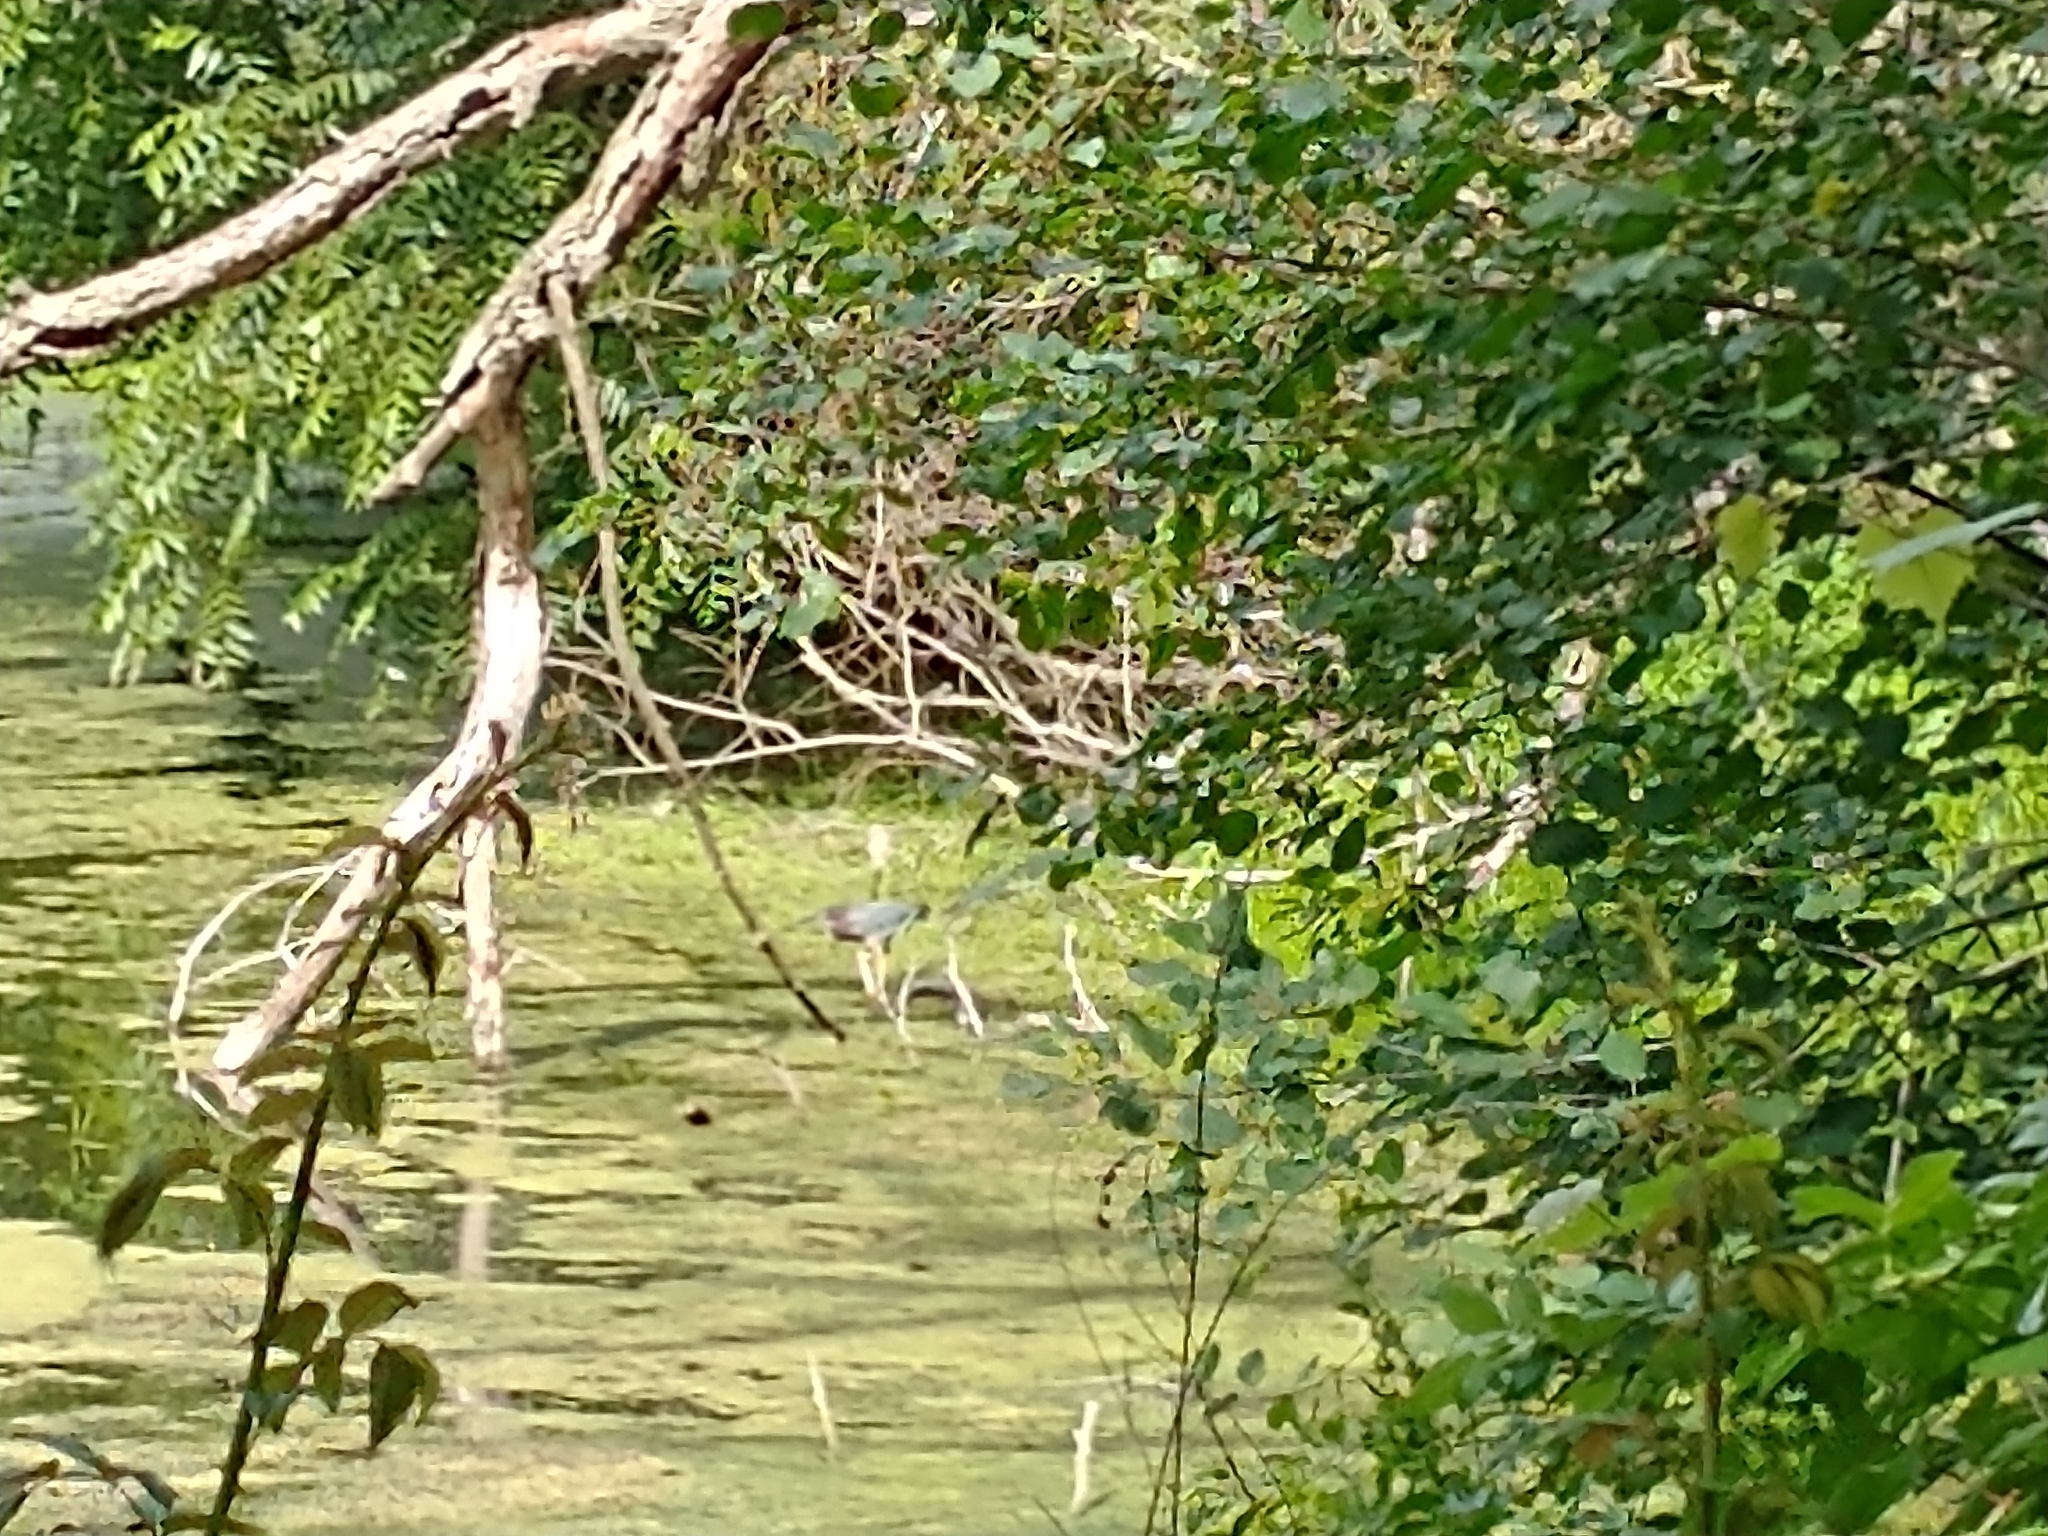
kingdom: Animalia
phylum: Chordata
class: Aves
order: Pelecaniformes
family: Ardeidae
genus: Butorides
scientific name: Butorides virescens
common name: Green heron
